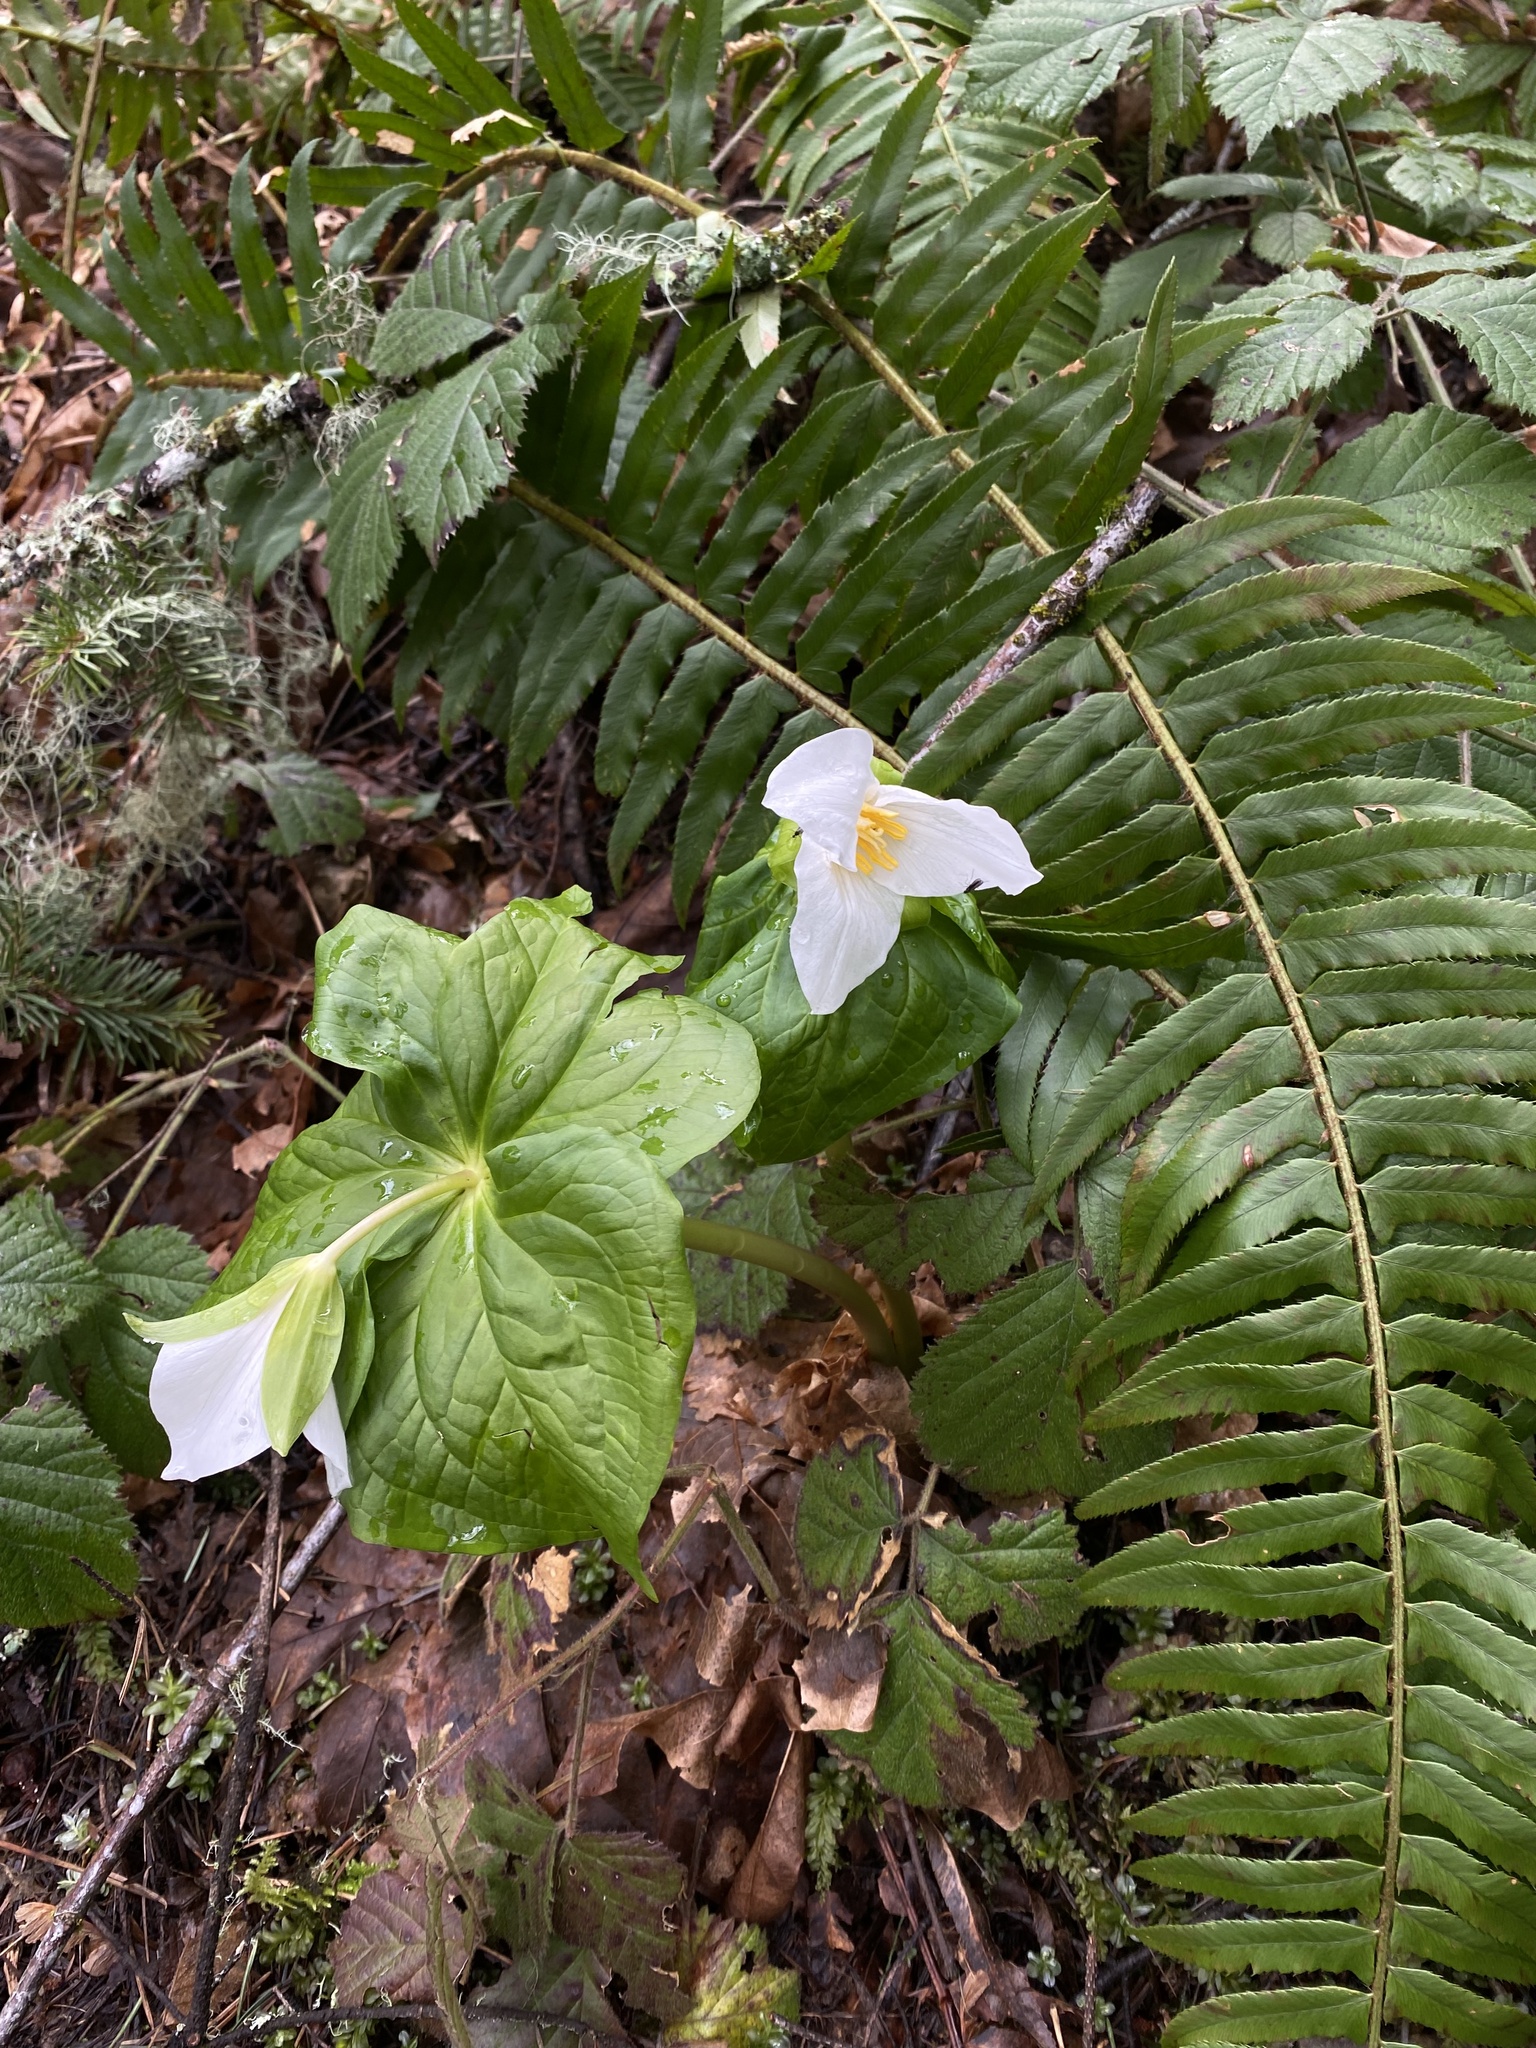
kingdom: Plantae
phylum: Tracheophyta
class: Liliopsida
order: Liliales
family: Melanthiaceae
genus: Trillium
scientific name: Trillium ovatum
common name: Pacific trillium
